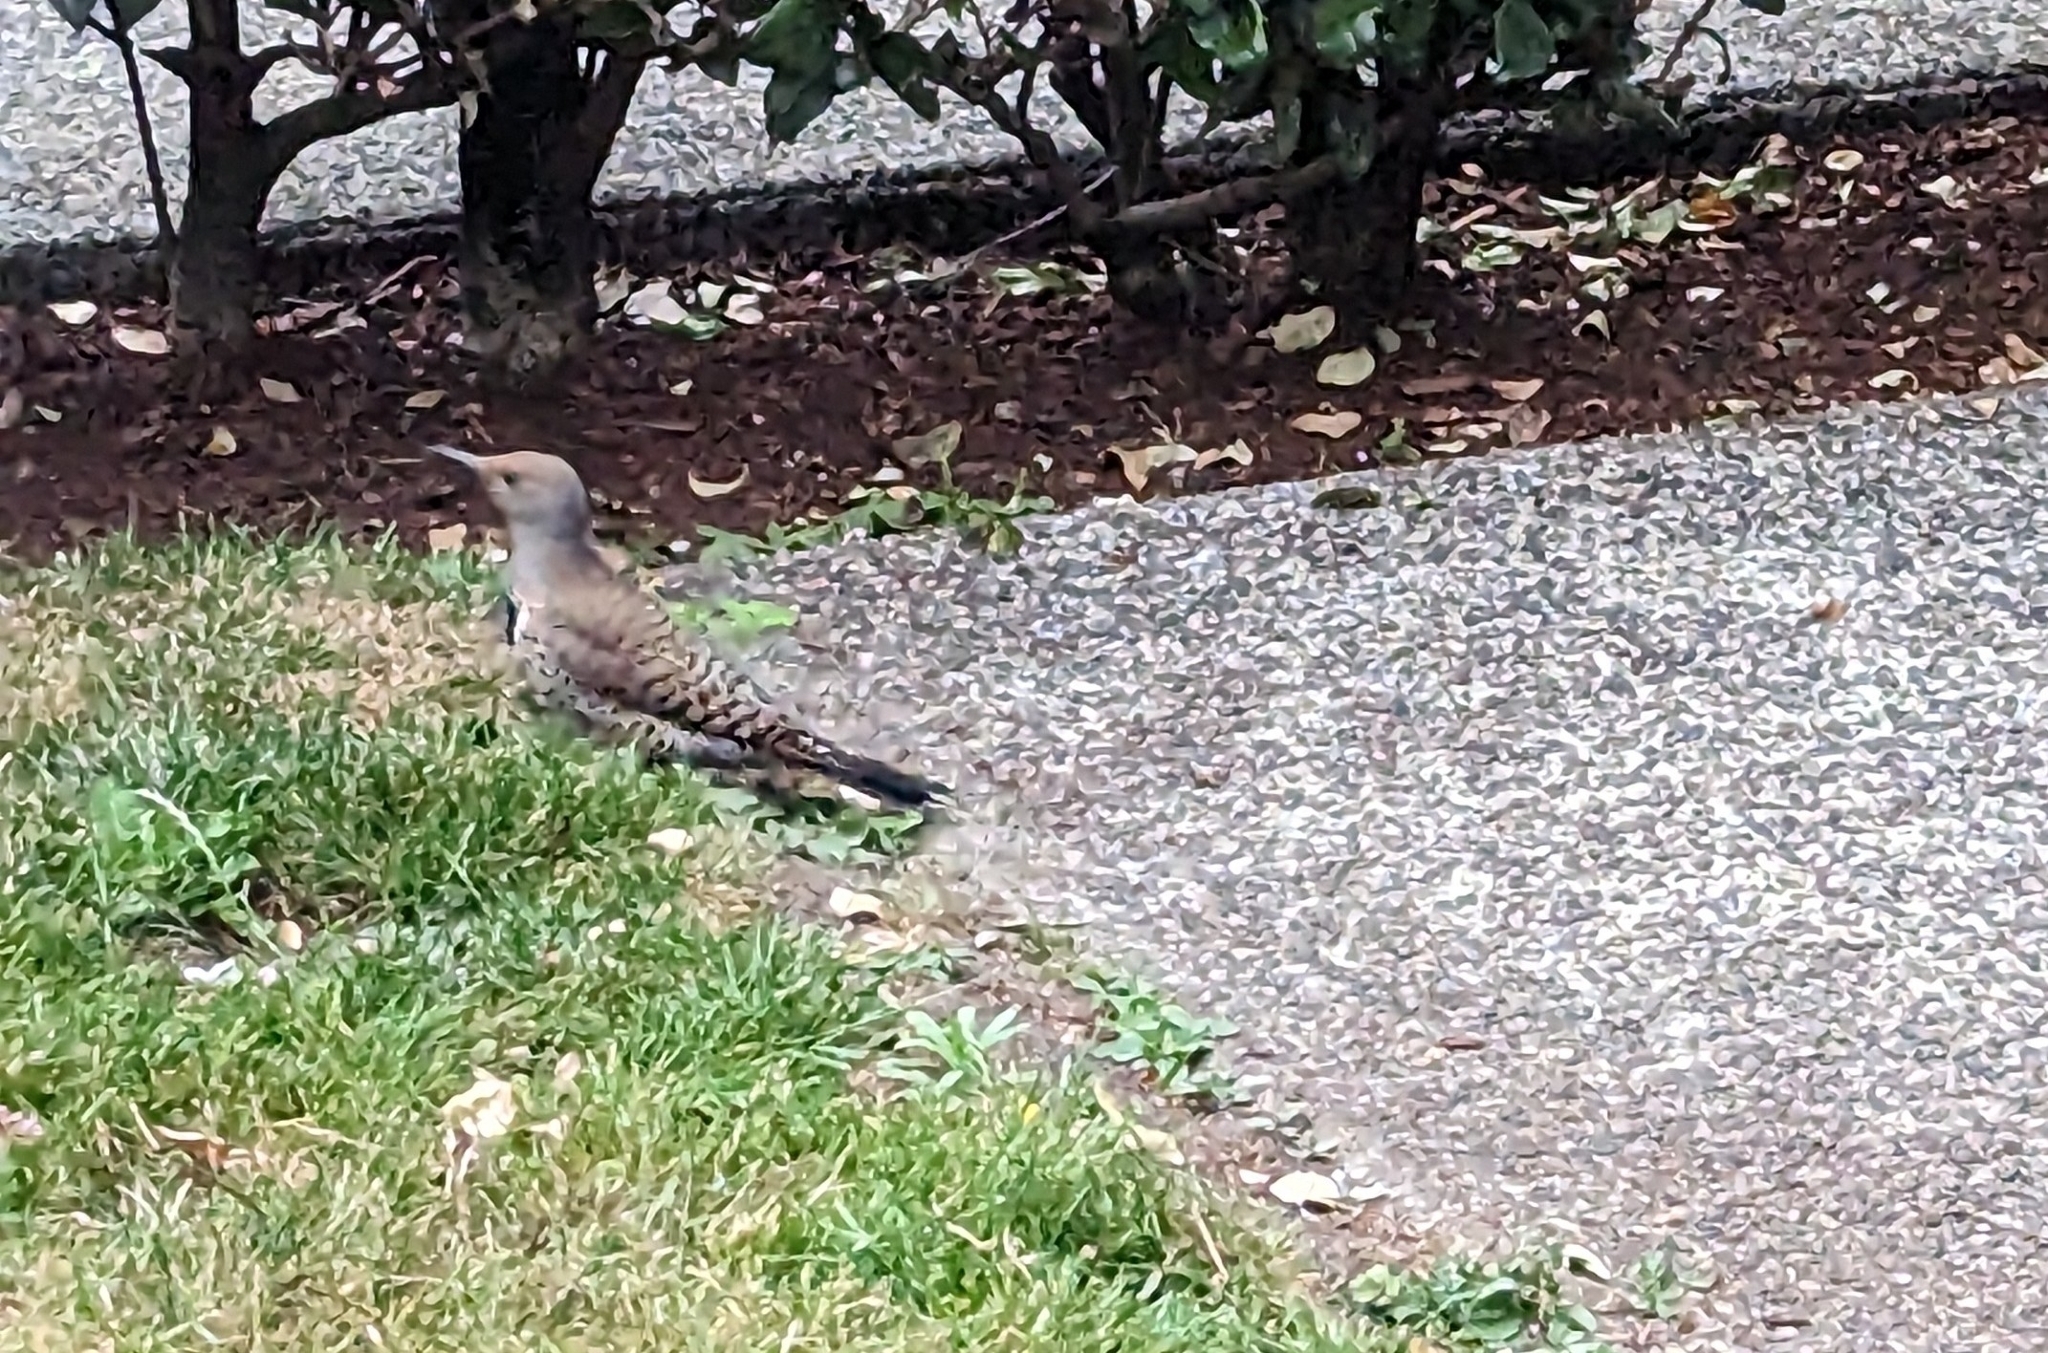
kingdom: Animalia
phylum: Chordata
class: Aves
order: Piciformes
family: Picidae
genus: Colaptes
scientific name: Colaptes auratus
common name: Northern flicker
